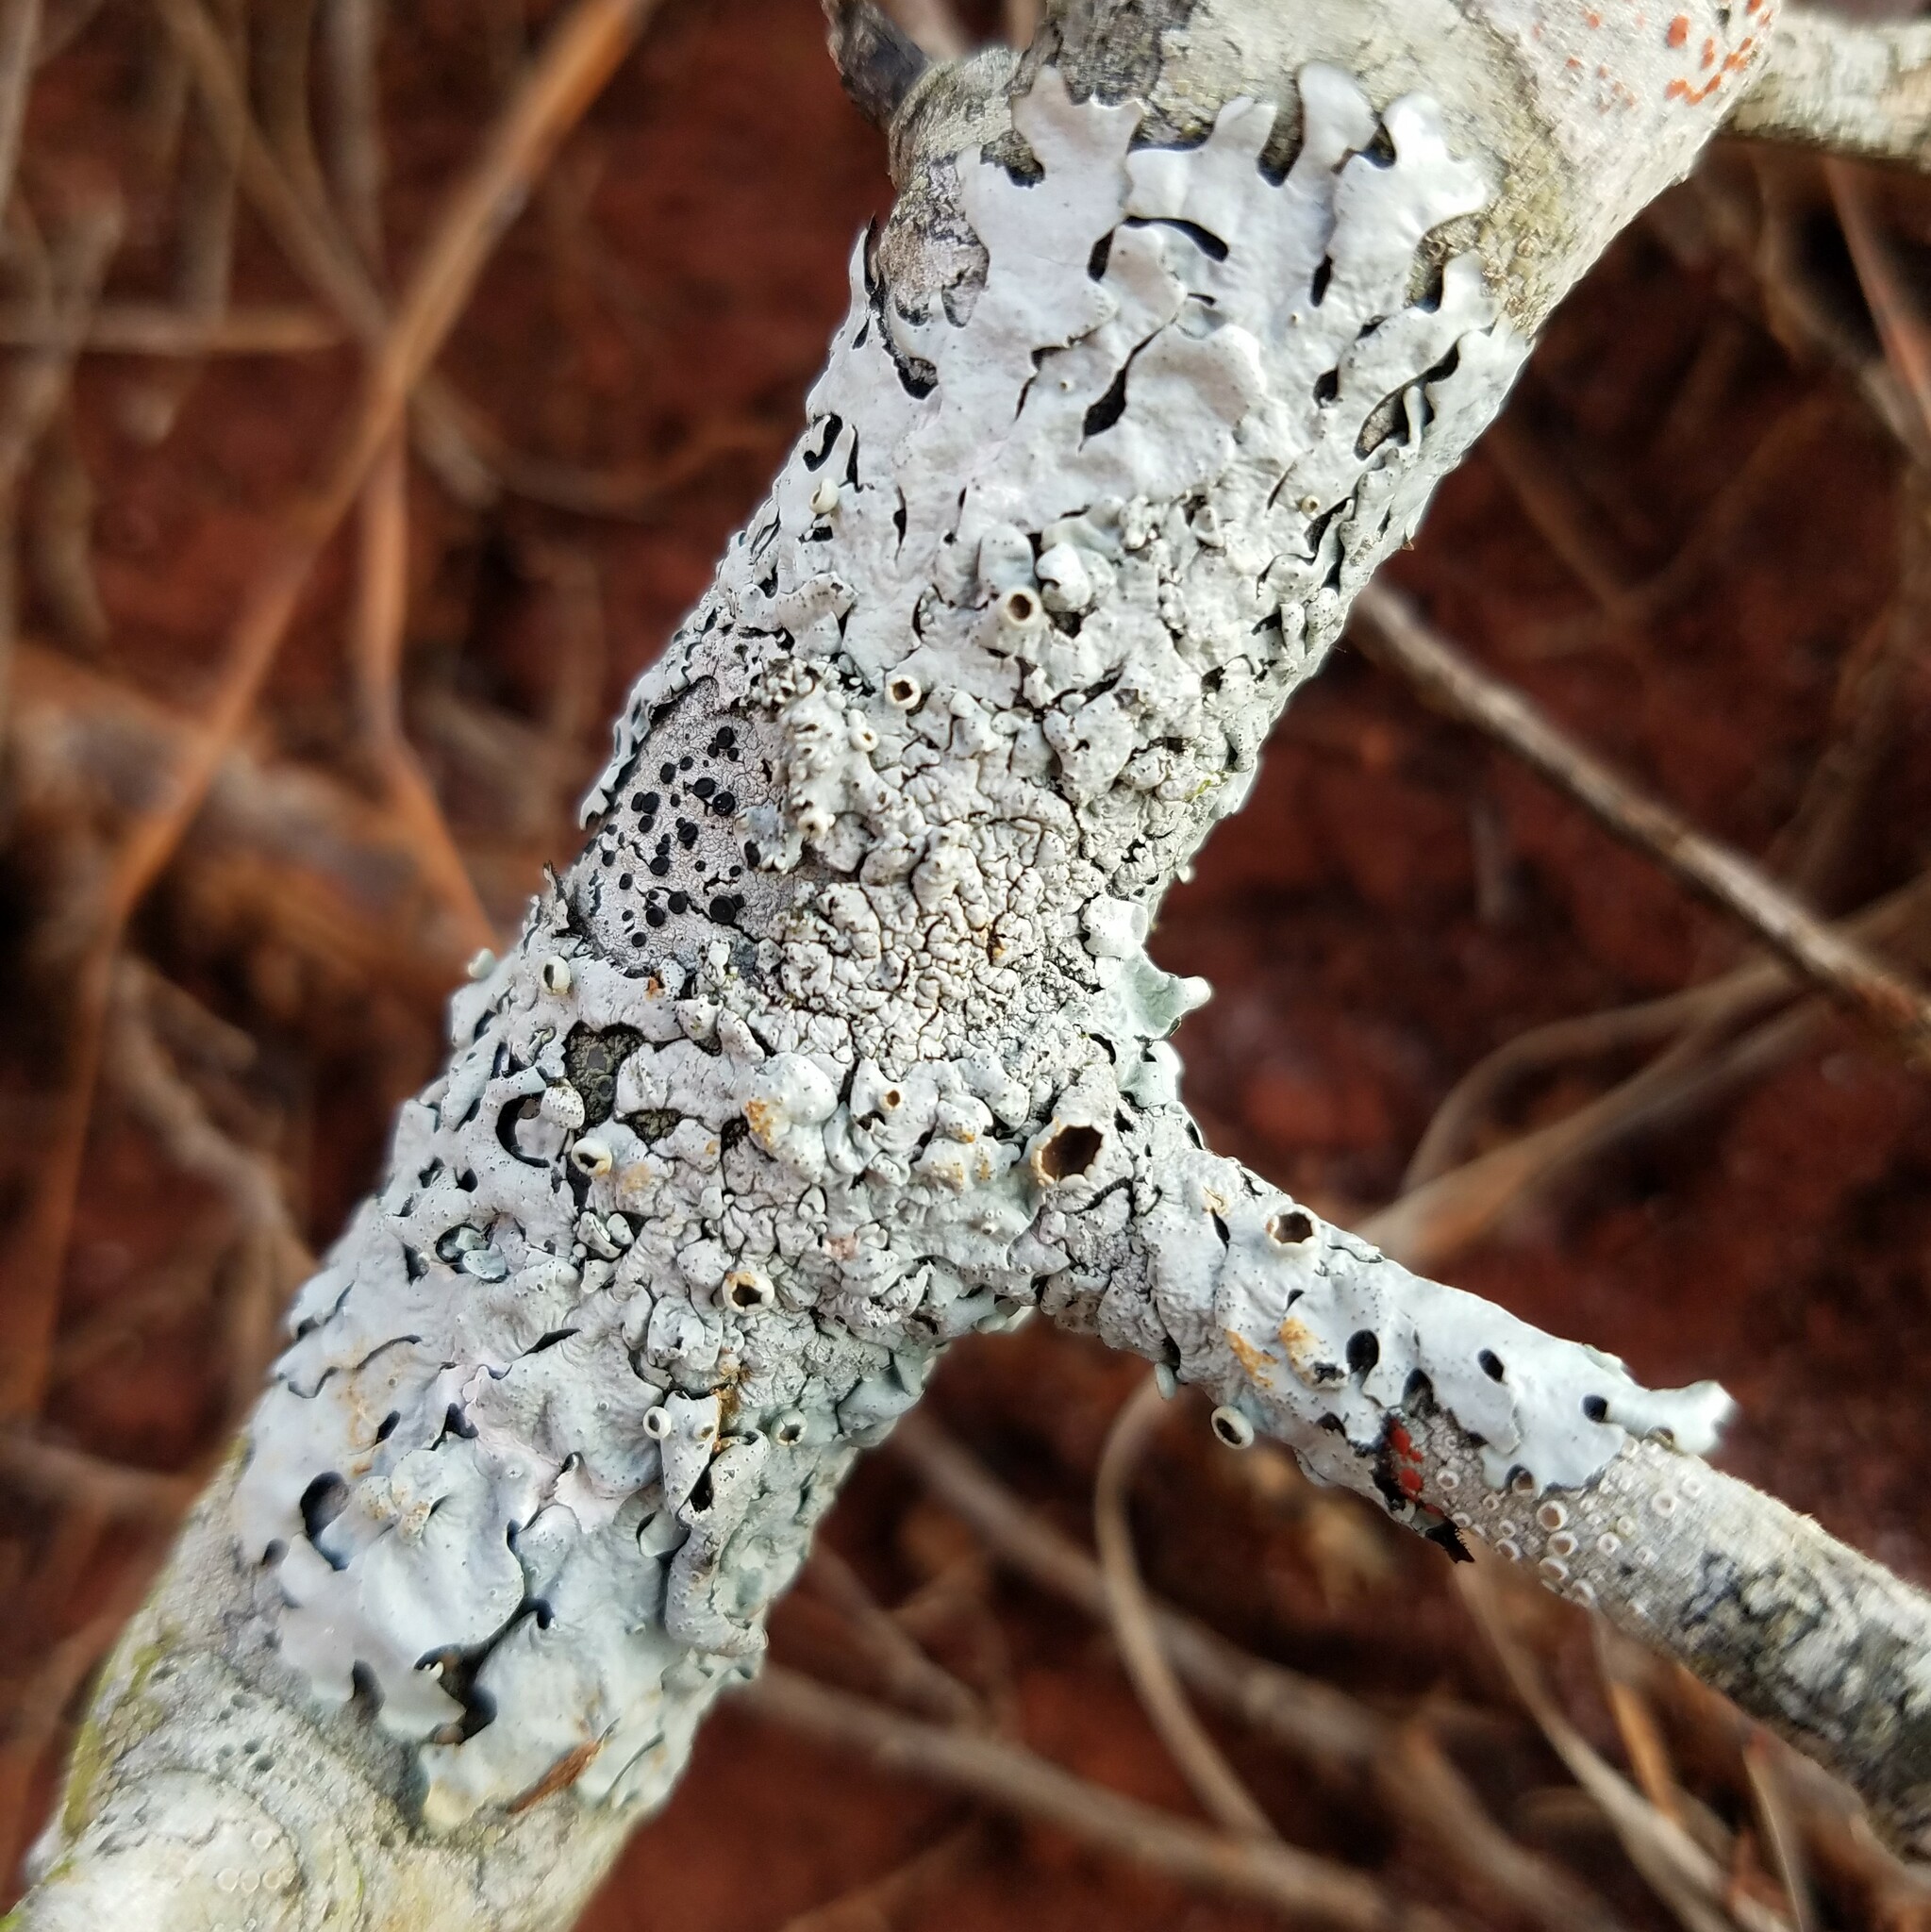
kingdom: Fungi
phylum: Ascomycota
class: Lecanoromycetes
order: Lecanorales
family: Parmeliaceae
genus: Hypotrachyna
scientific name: Hypotrachyna livida
